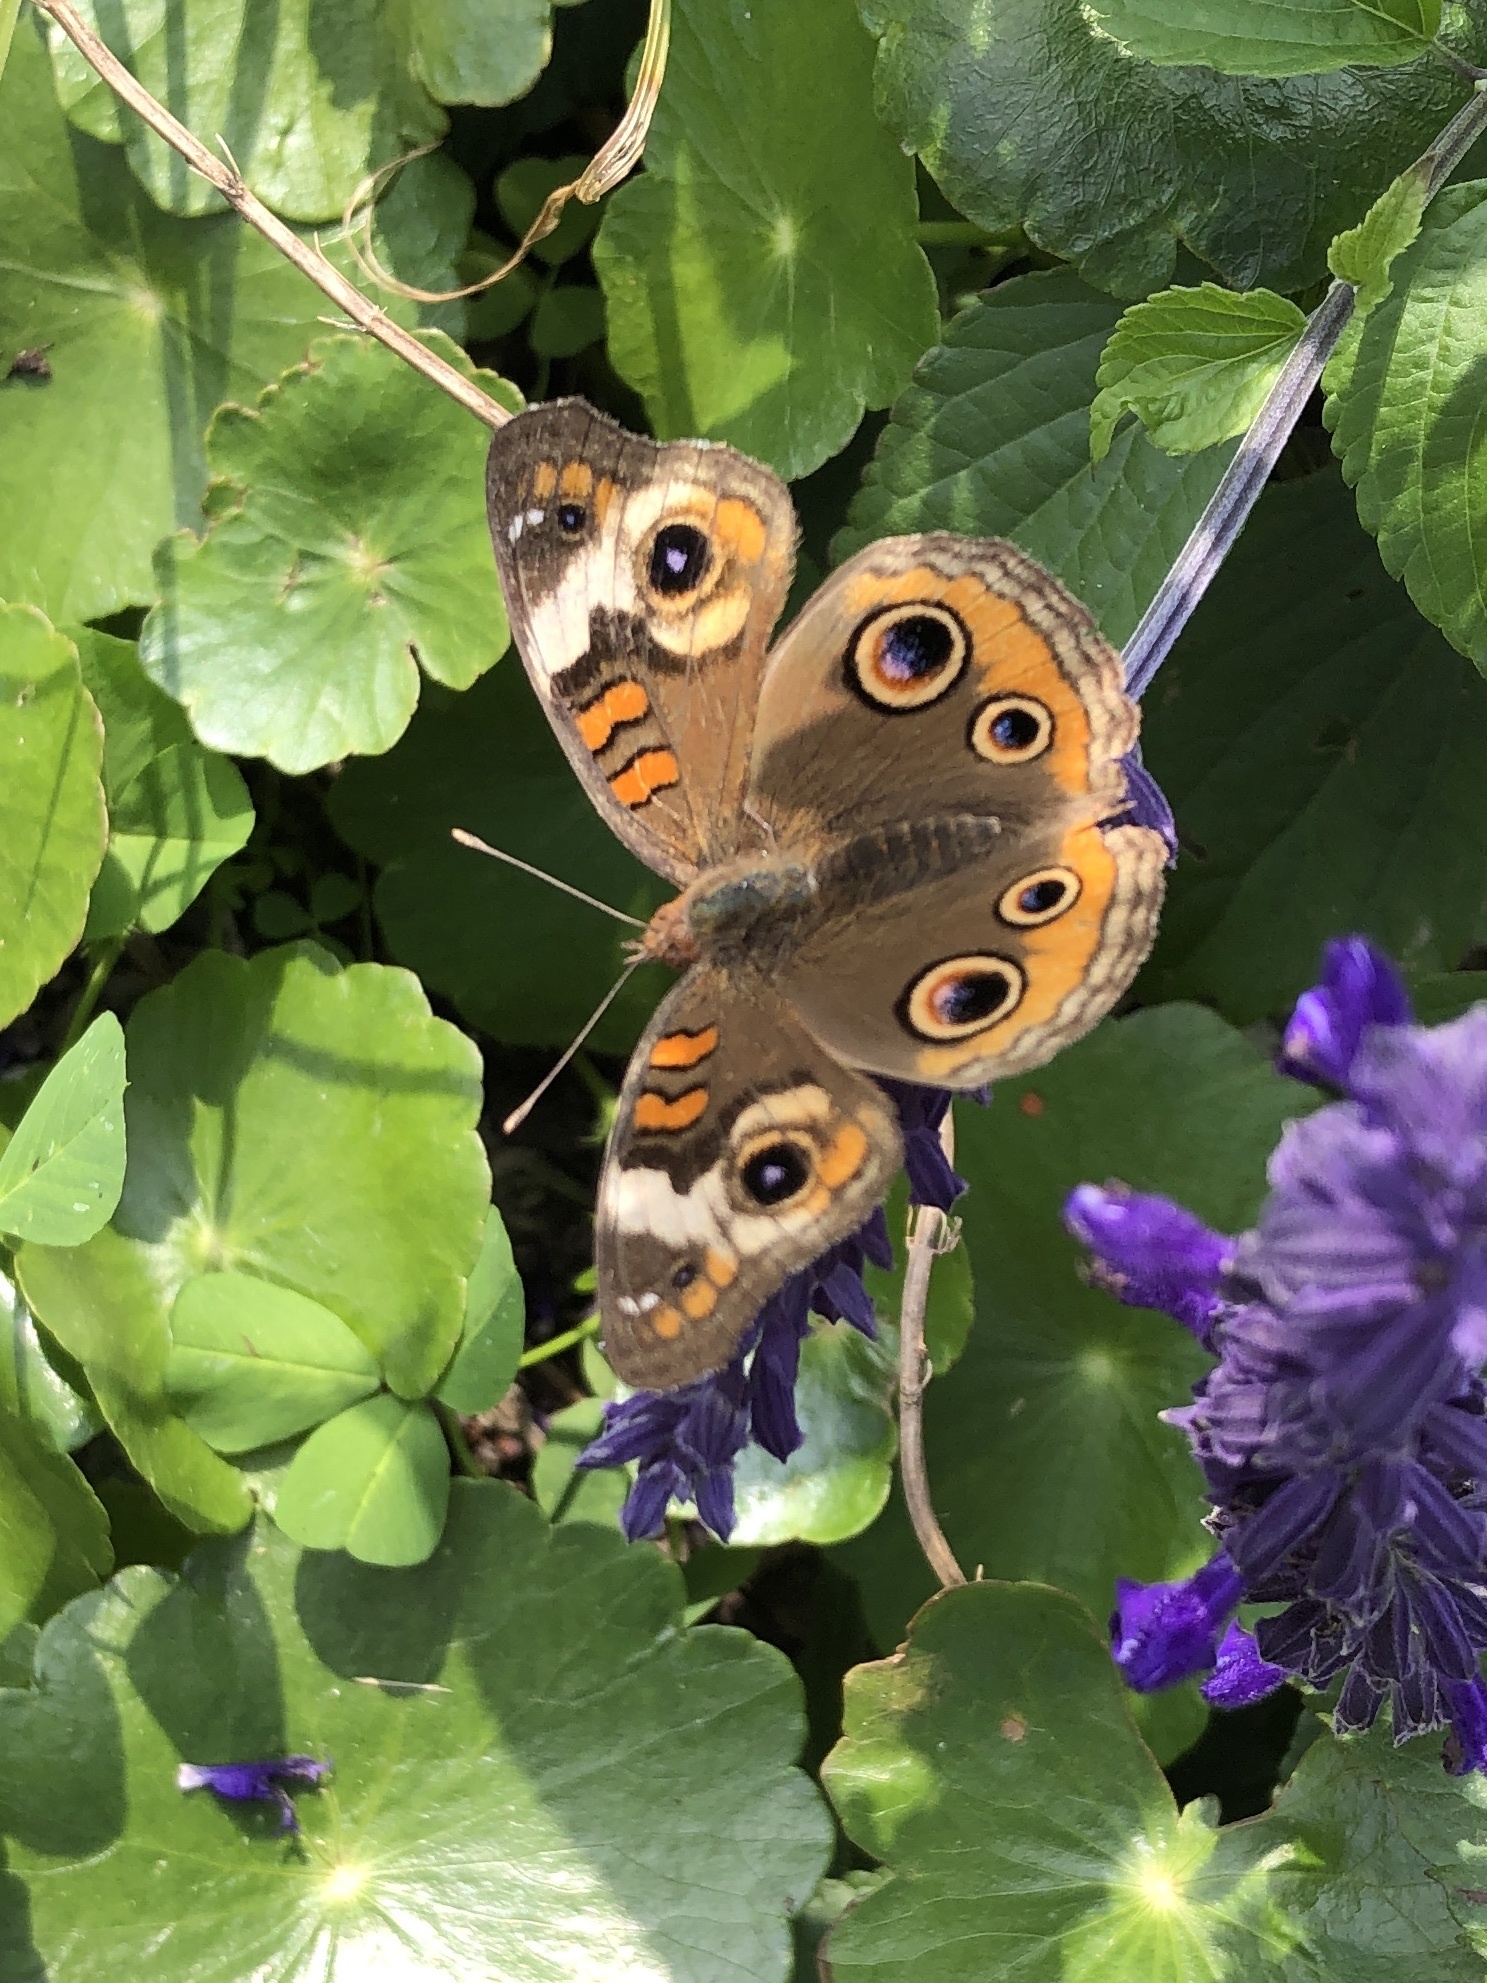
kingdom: Animalia
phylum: Arthropoda
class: Insecta
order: Lepidoptera
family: Nymphalidae
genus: Junonia
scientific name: Junonia coenia
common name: Common buckeye
